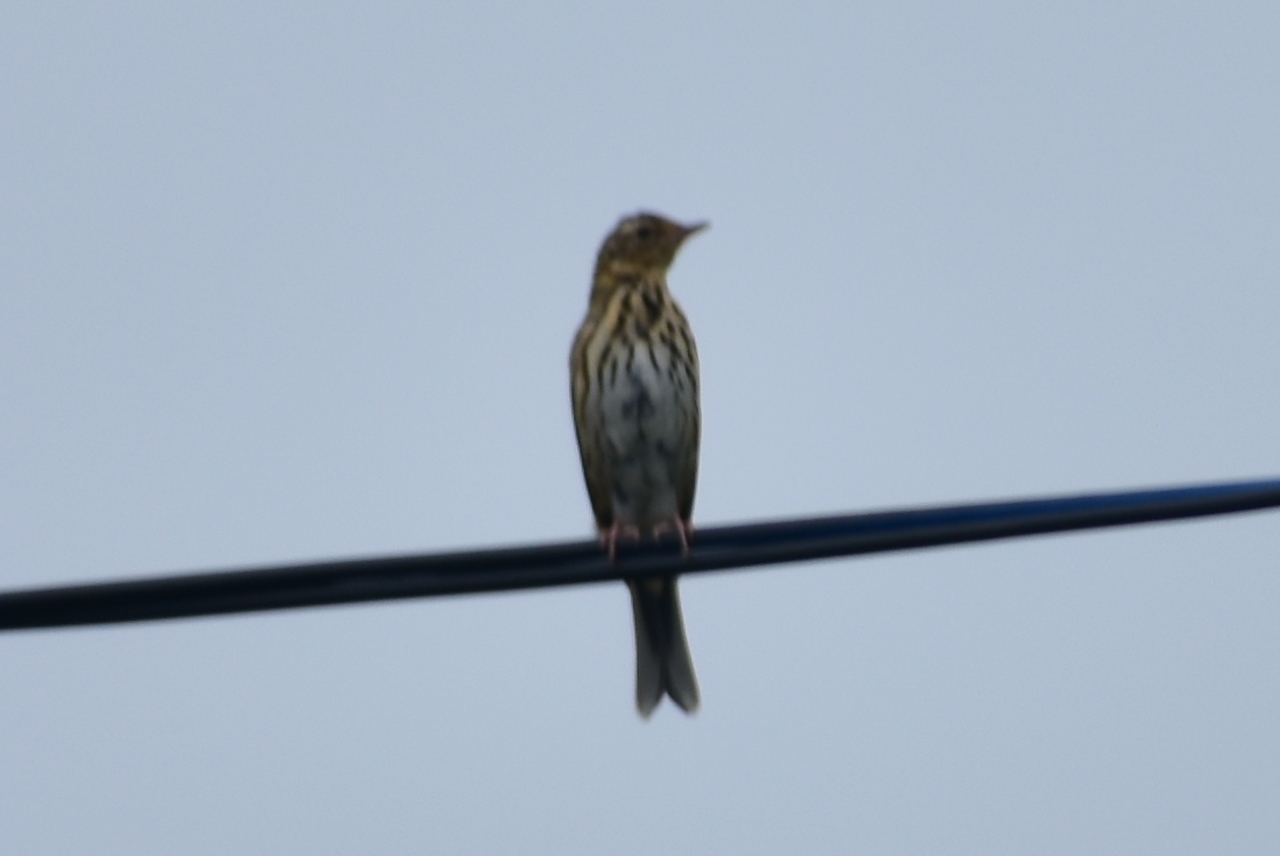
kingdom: Animalia
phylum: Chordata
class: Aves
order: Passeriformes
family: Motacillidae
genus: Anthus
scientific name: Anthus hodgsoni
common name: Olive-backed pipit
